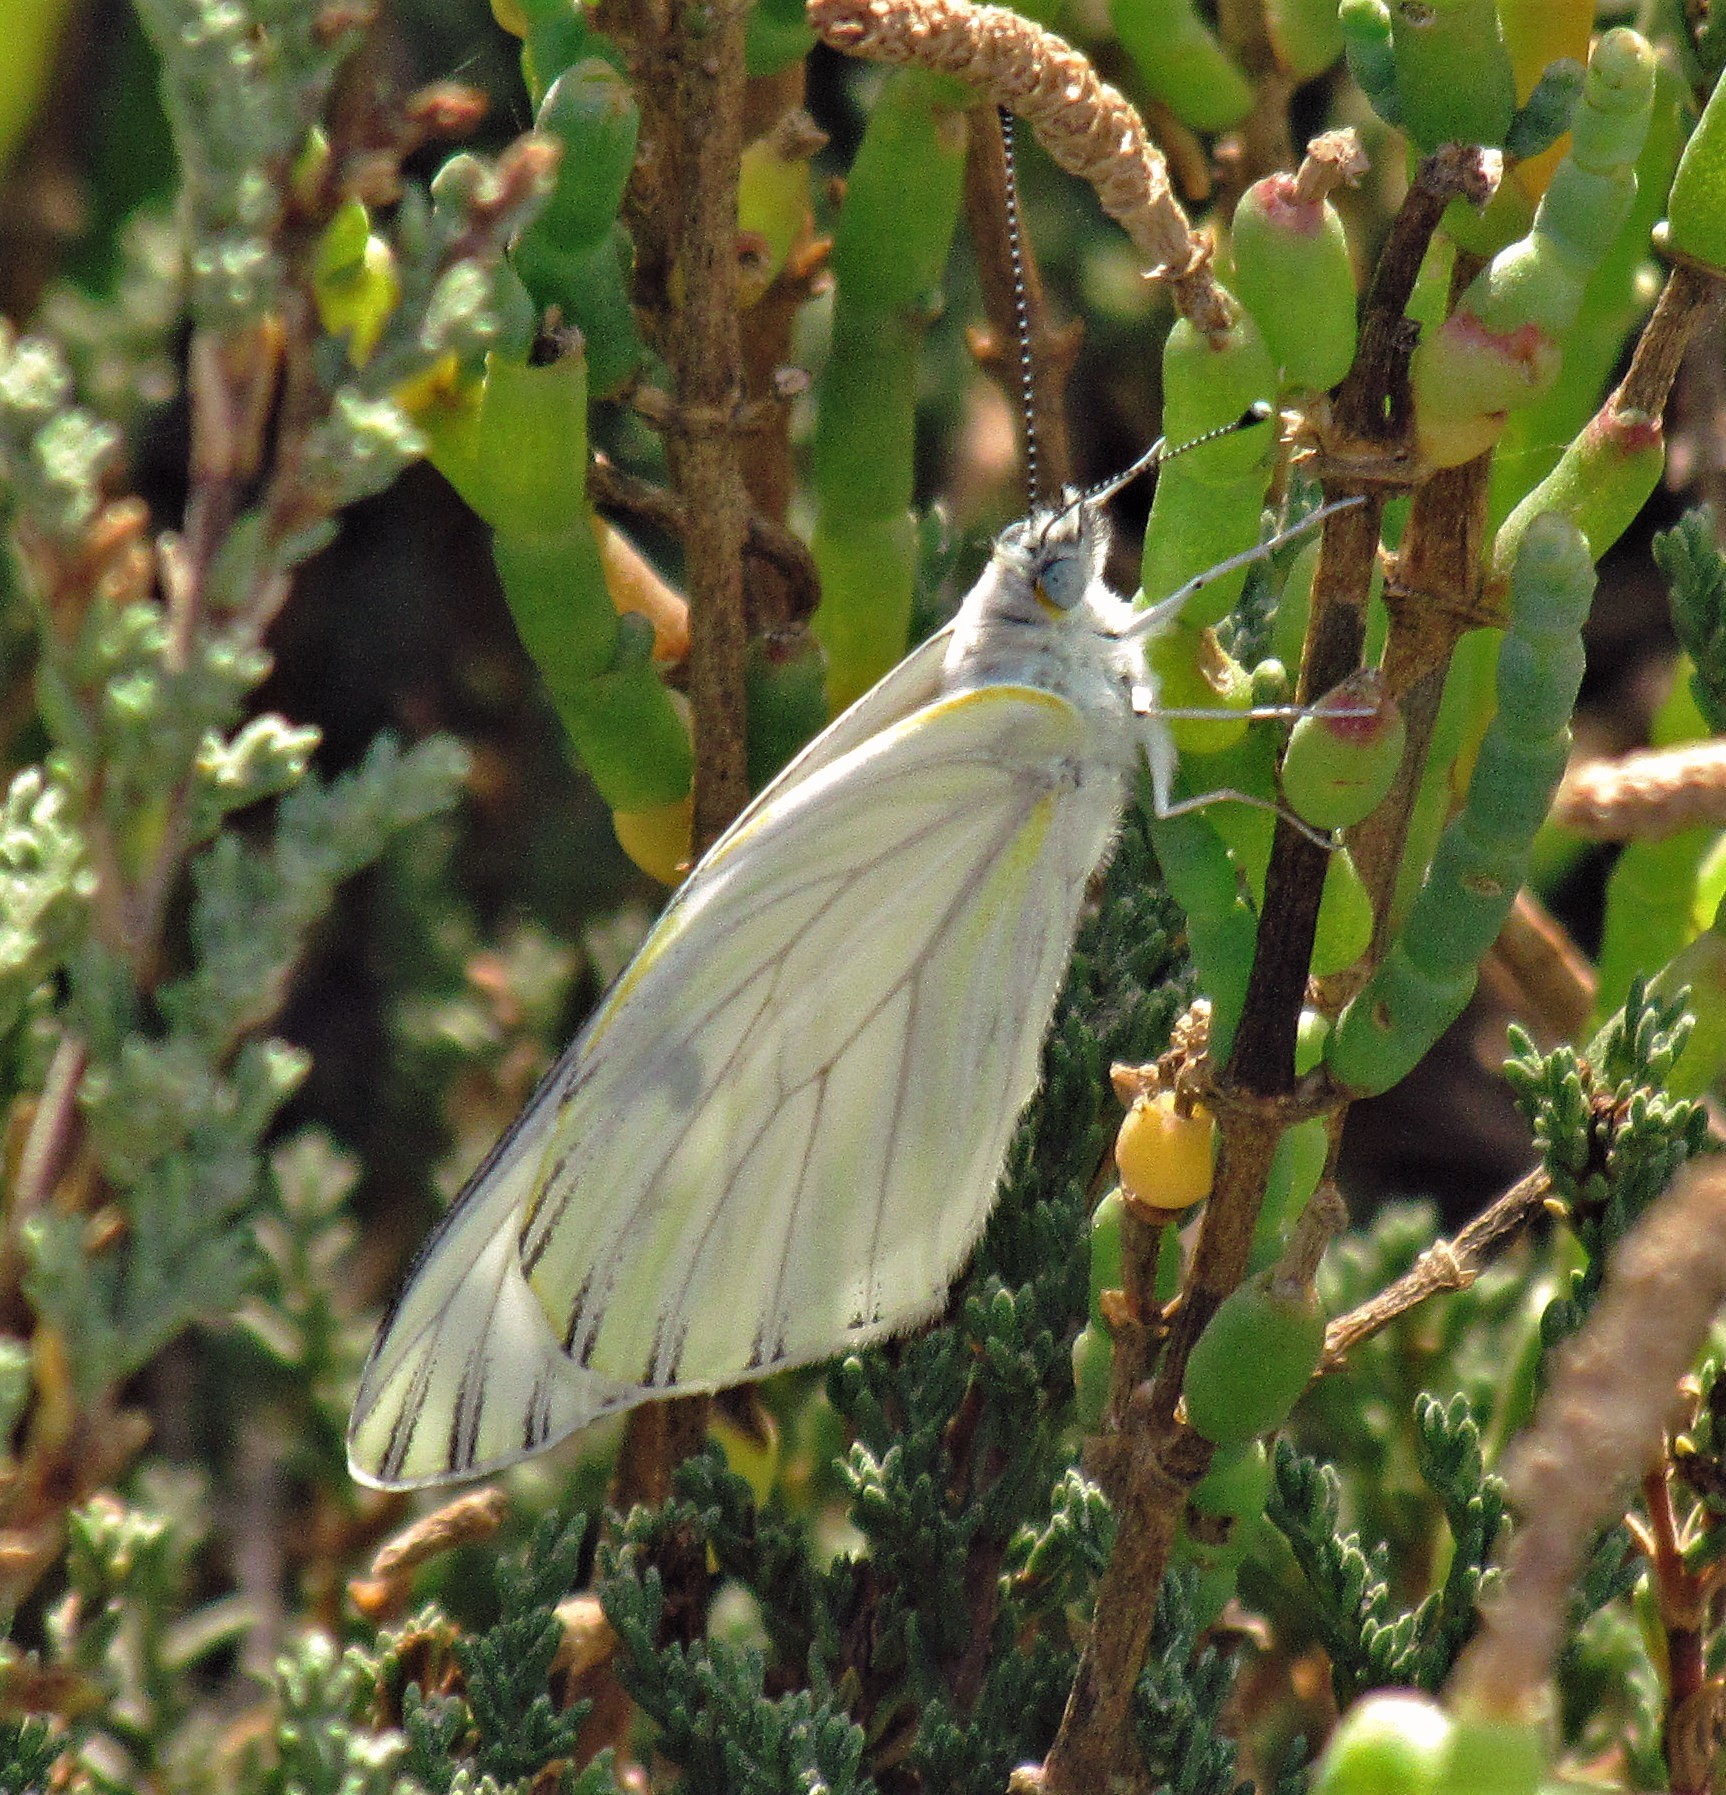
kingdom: Animalia
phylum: Arthropoda
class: Insecta
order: Lepidoptera
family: Pieridae
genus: Tatochila
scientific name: Tatochila mercedis
